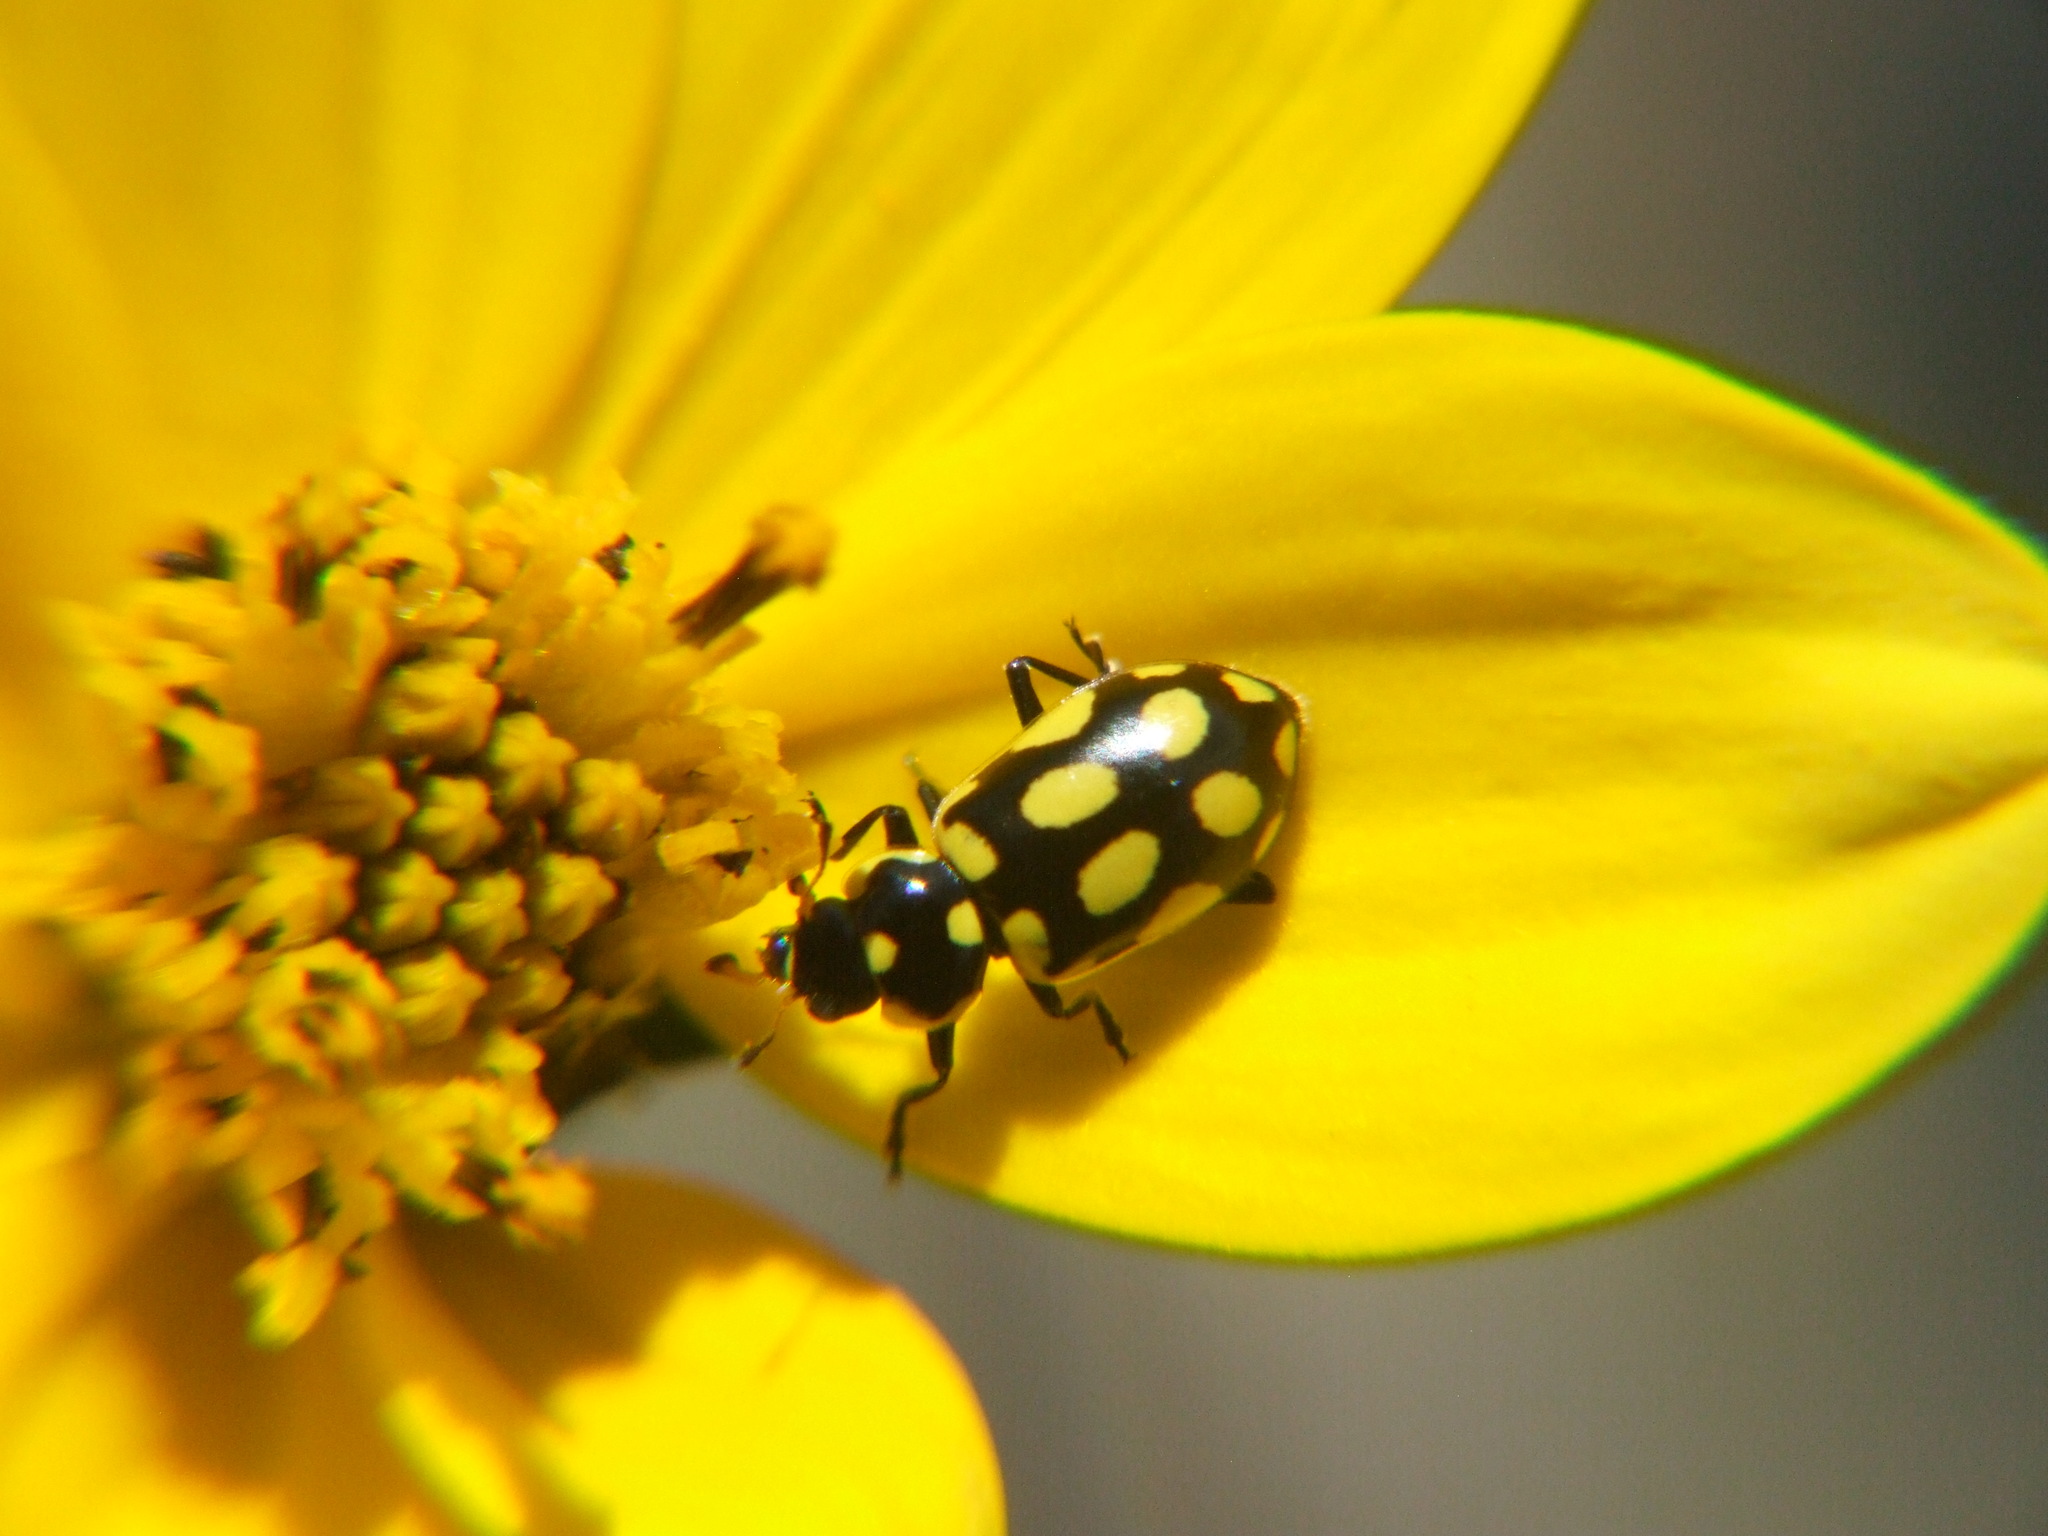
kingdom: Animalia
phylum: Arthropoda
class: Insecta
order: Coleoptera
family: Coccinellidae
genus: Eriopis
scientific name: Eriopis andina
